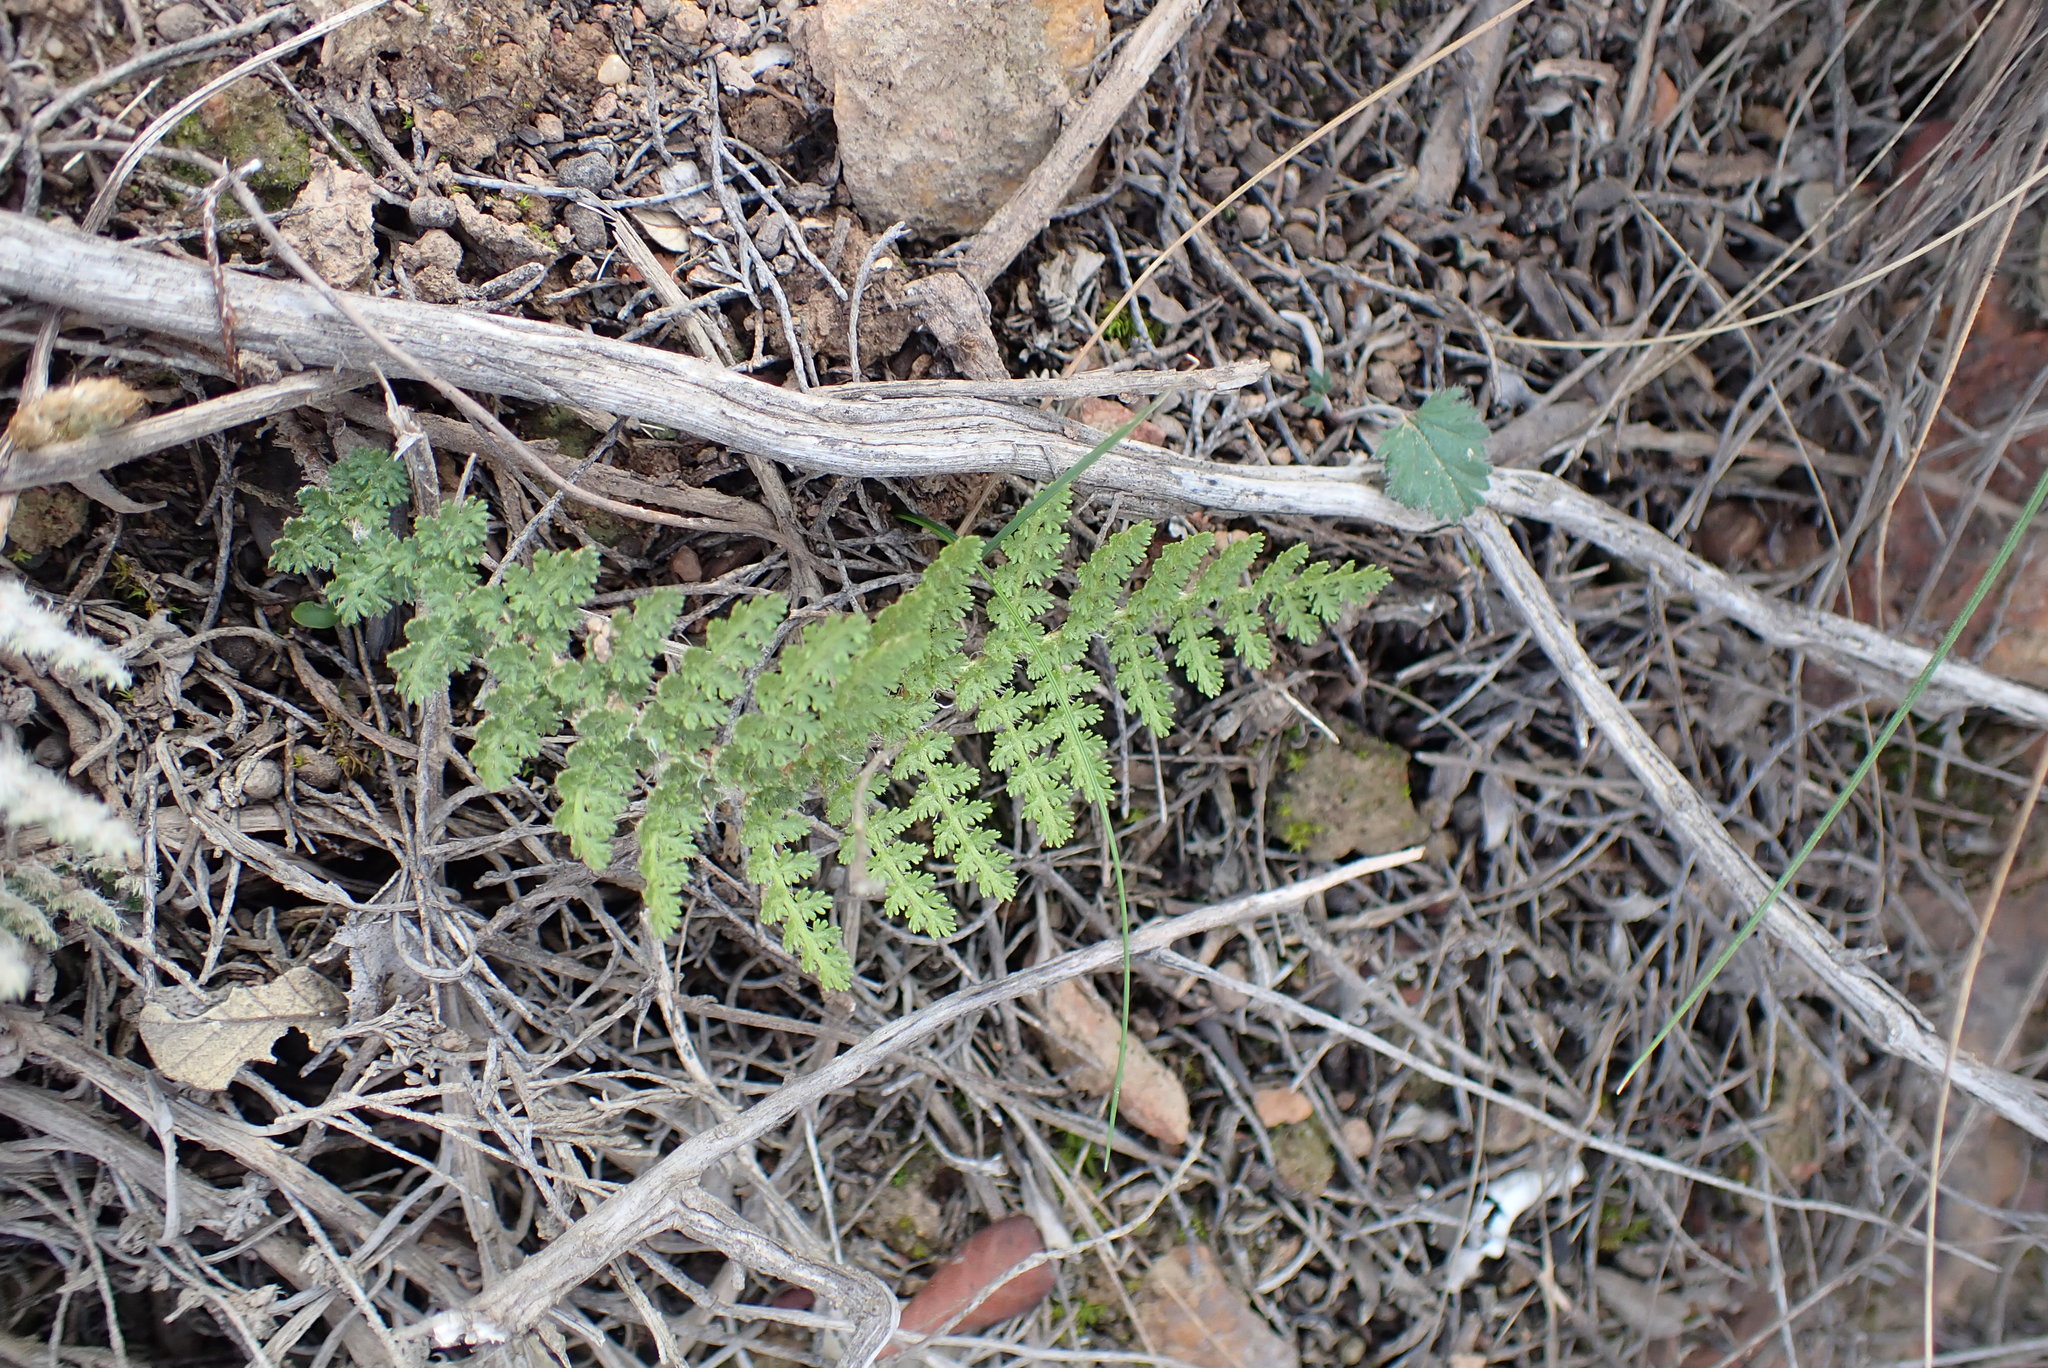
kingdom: Plantae
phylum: Tracheophyta
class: Polypodiopsida
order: Schizaeales
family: Anemiaceae
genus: Anemia
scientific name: Anemia caffrorum
